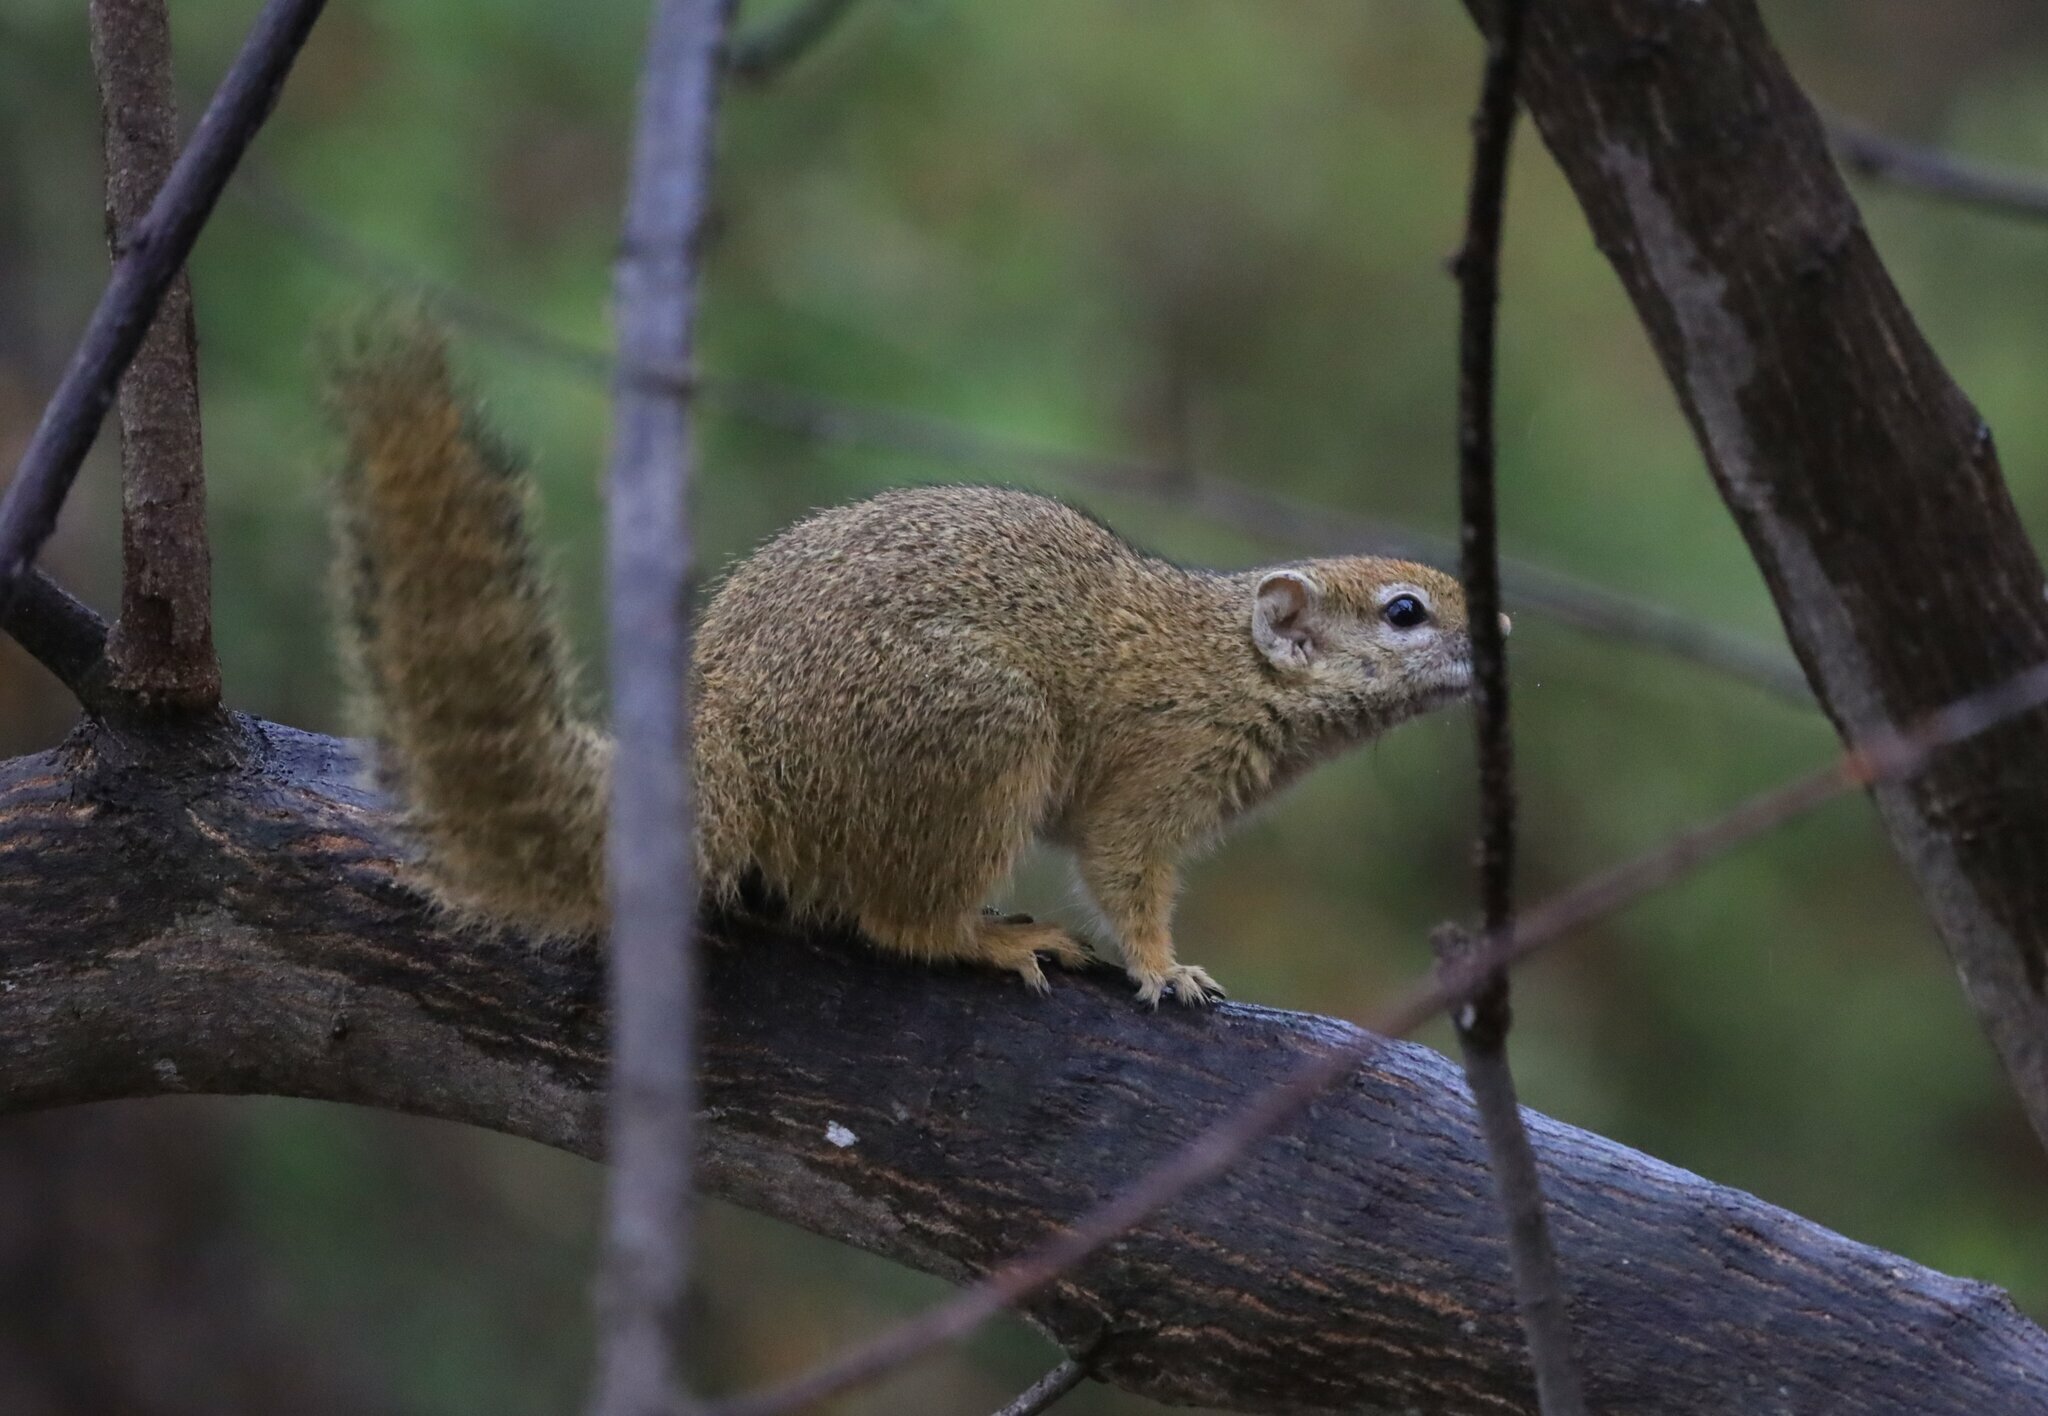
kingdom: Animalia
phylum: Chordata
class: Mammalia
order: Rodentia
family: Sciuridae
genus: Paraxerus
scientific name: Paraxerus cepapi
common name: Smith's bush squirrel
